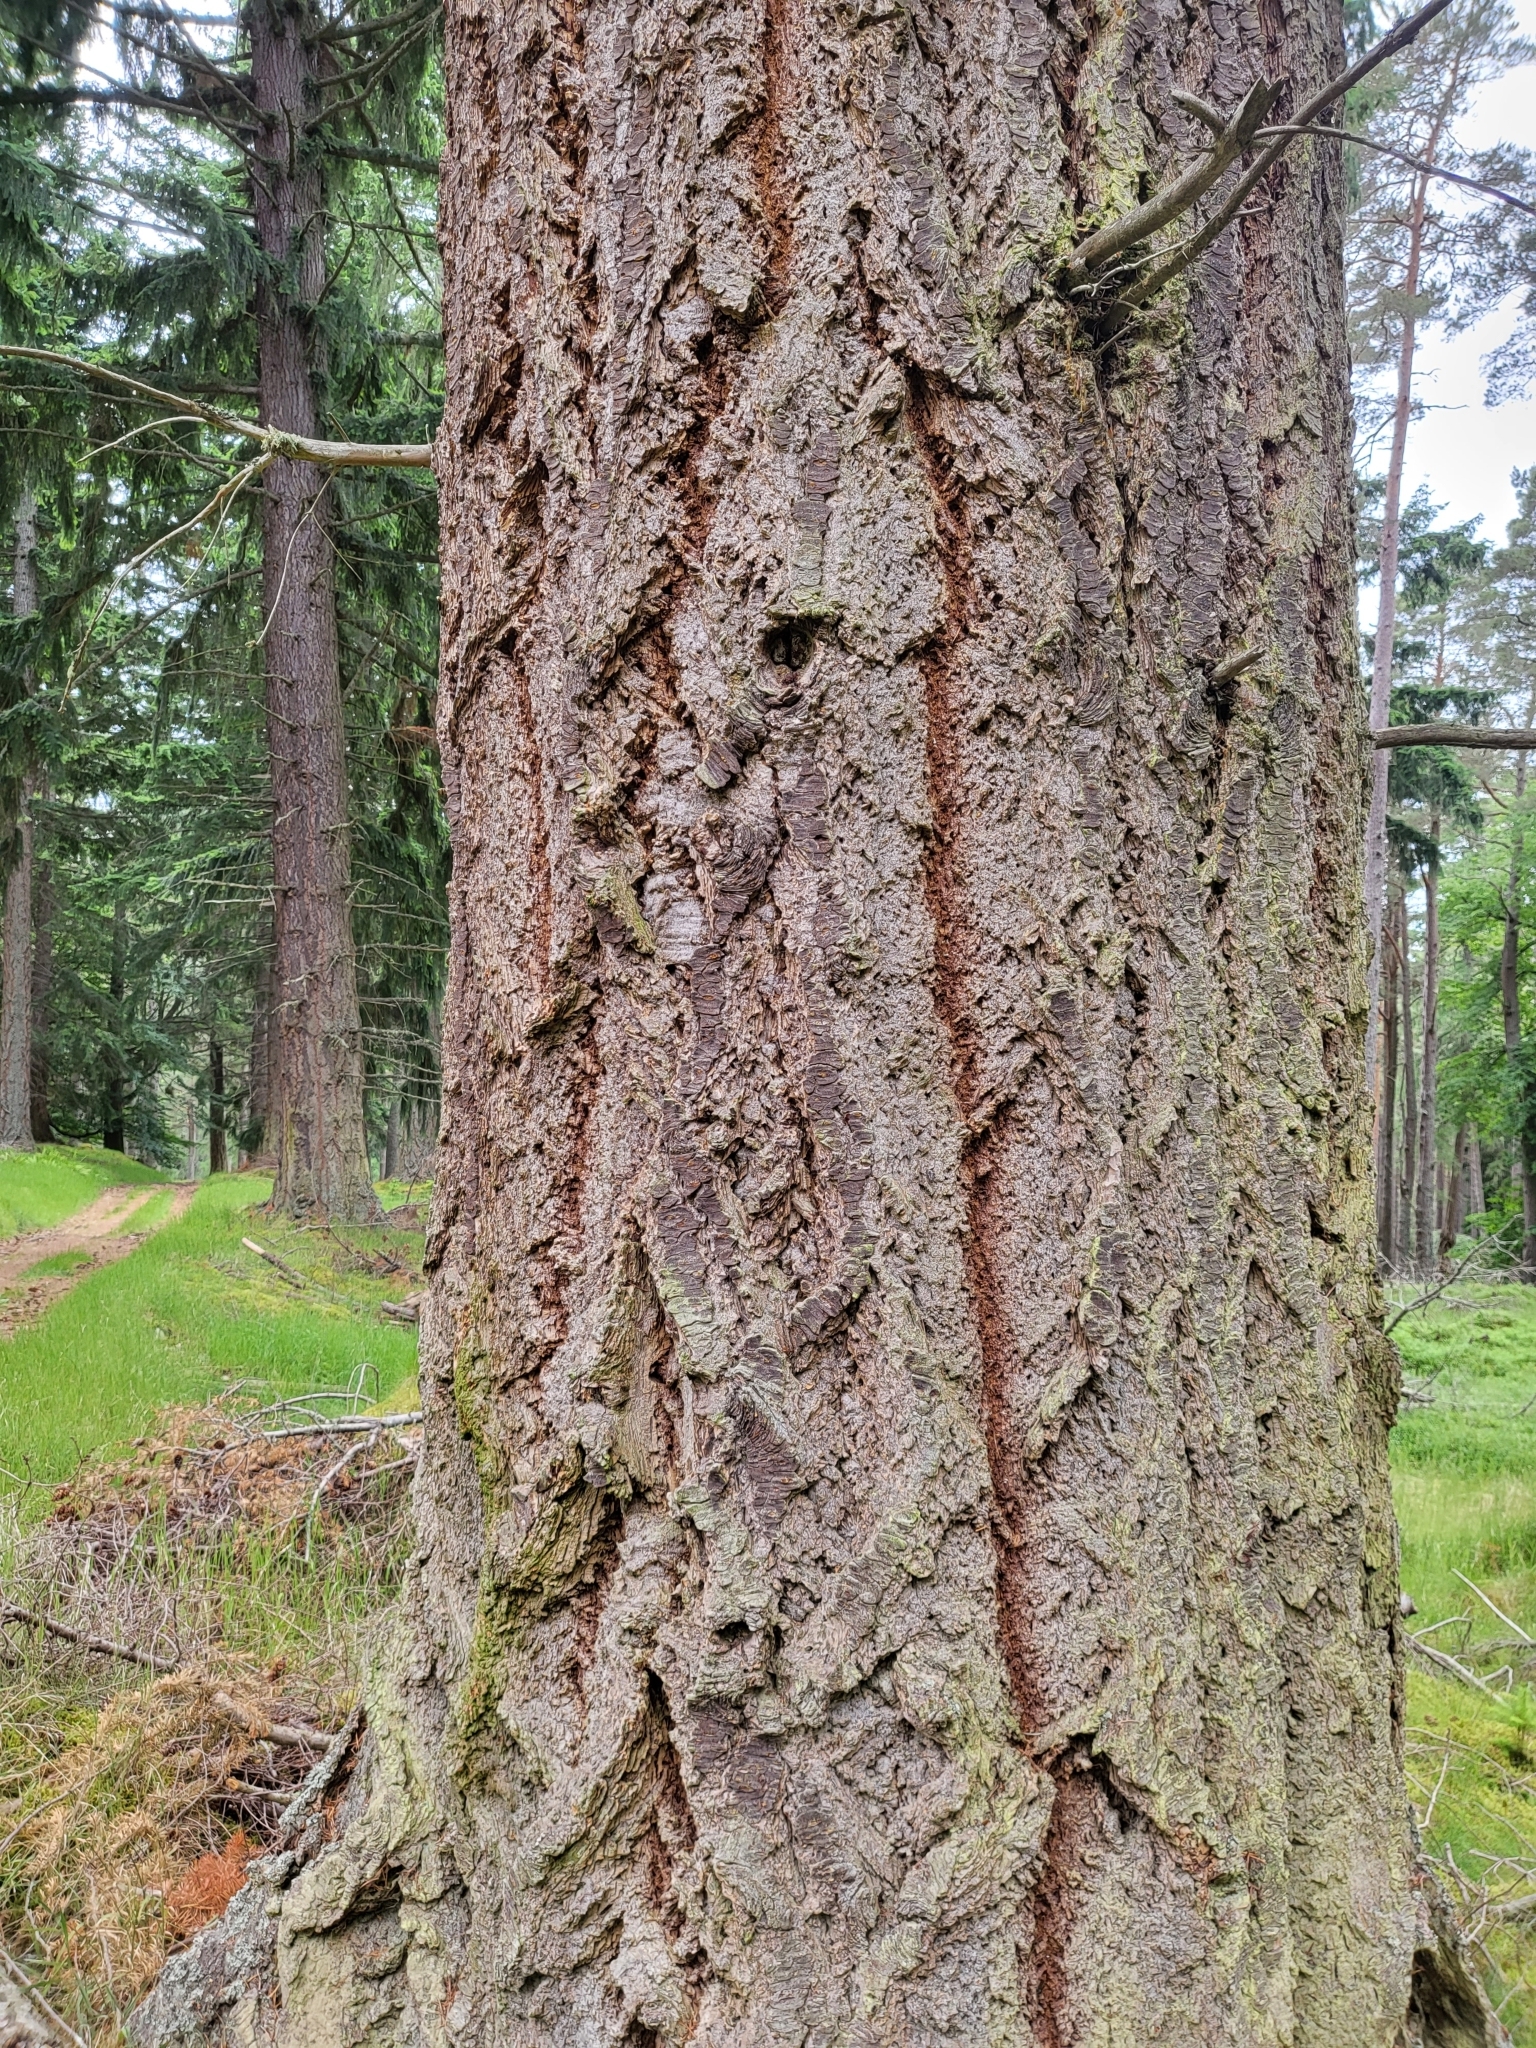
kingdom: Plantae
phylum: Tracheophyta
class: Pinopsida
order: Pinales
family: Pinaceae
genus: Pseudotsuga
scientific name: Pseudotsuga menziesii
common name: Douglas fir
